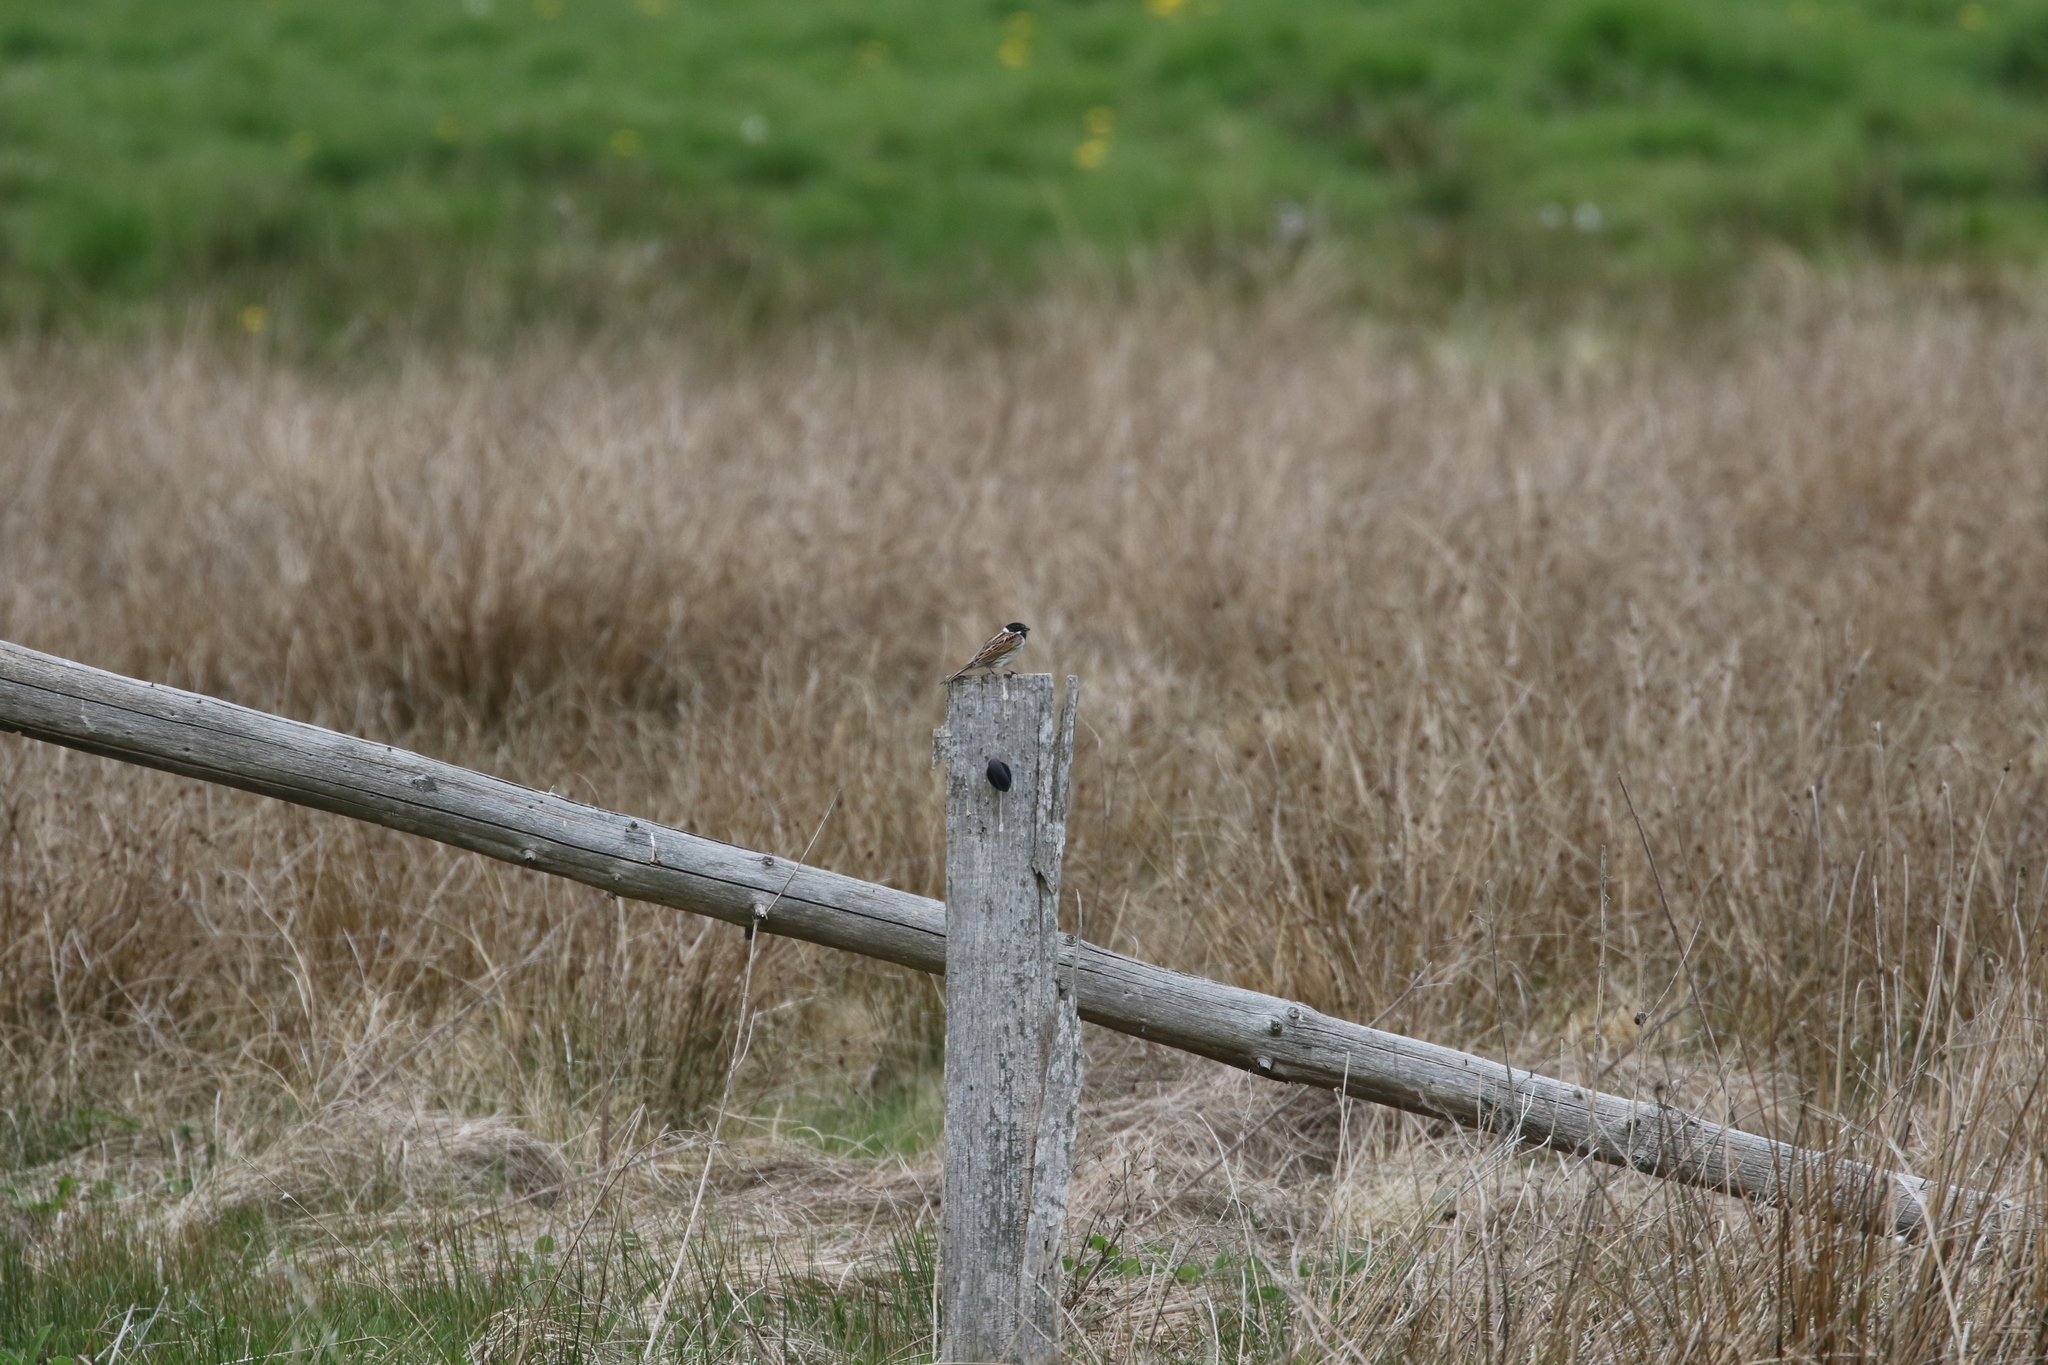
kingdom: Animalia
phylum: Chordata
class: Aves
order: Passeriformes
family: Emberizidae
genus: Emberiza
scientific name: Emberiza schoeniclus
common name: Reed bunting
